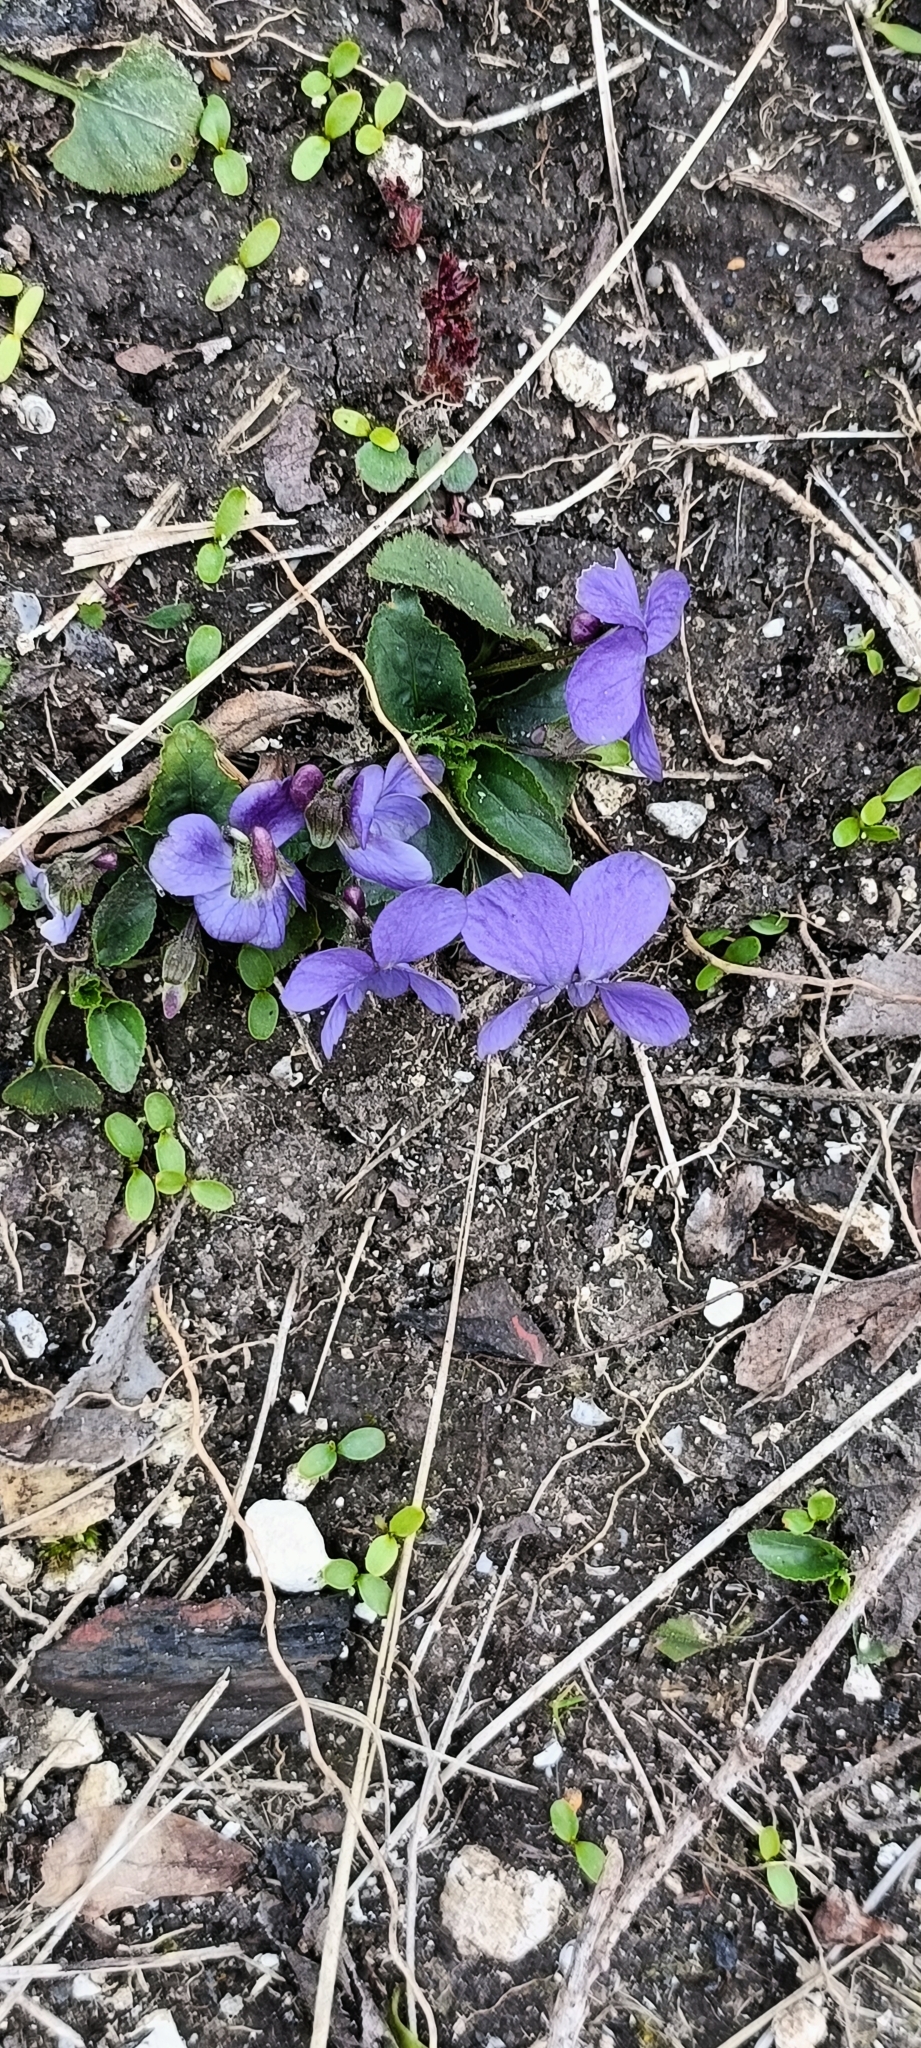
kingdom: Plantae
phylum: Tracheophyta
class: Magnoliopsida
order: Malpighiales
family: Violaceae
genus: Viola
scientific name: Viola hirta
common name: Hairy violet
